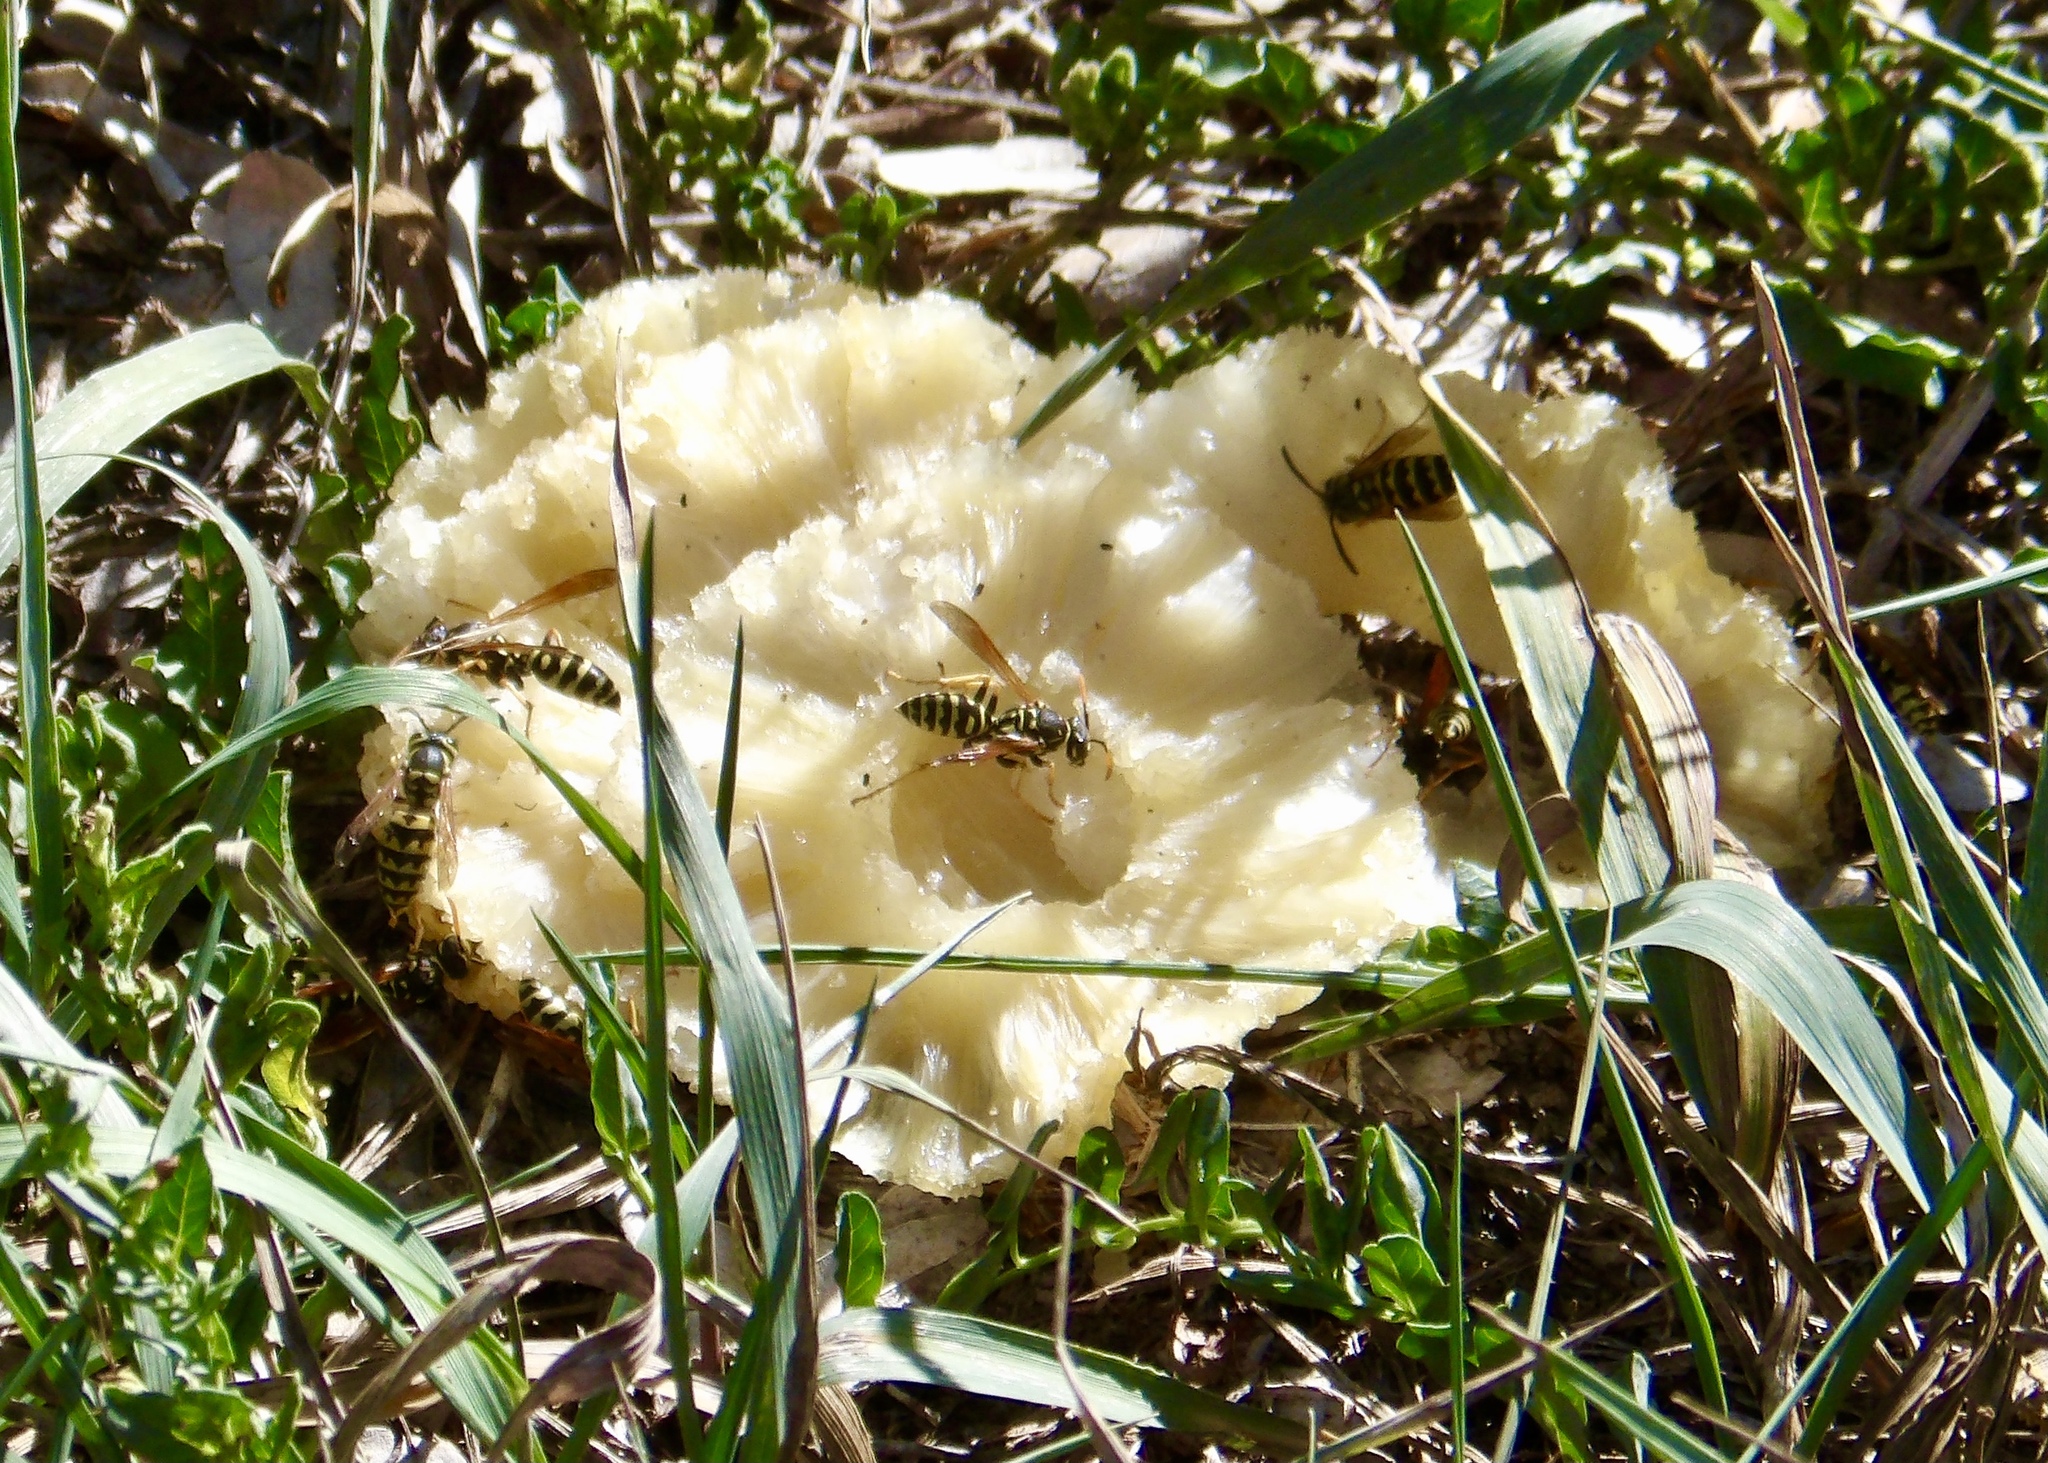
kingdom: Animalia
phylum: Arthropoda
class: Insecta
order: Hymenoptera
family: Eumenidae
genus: Polistes
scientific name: Polistes dominula
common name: Paper wasp
